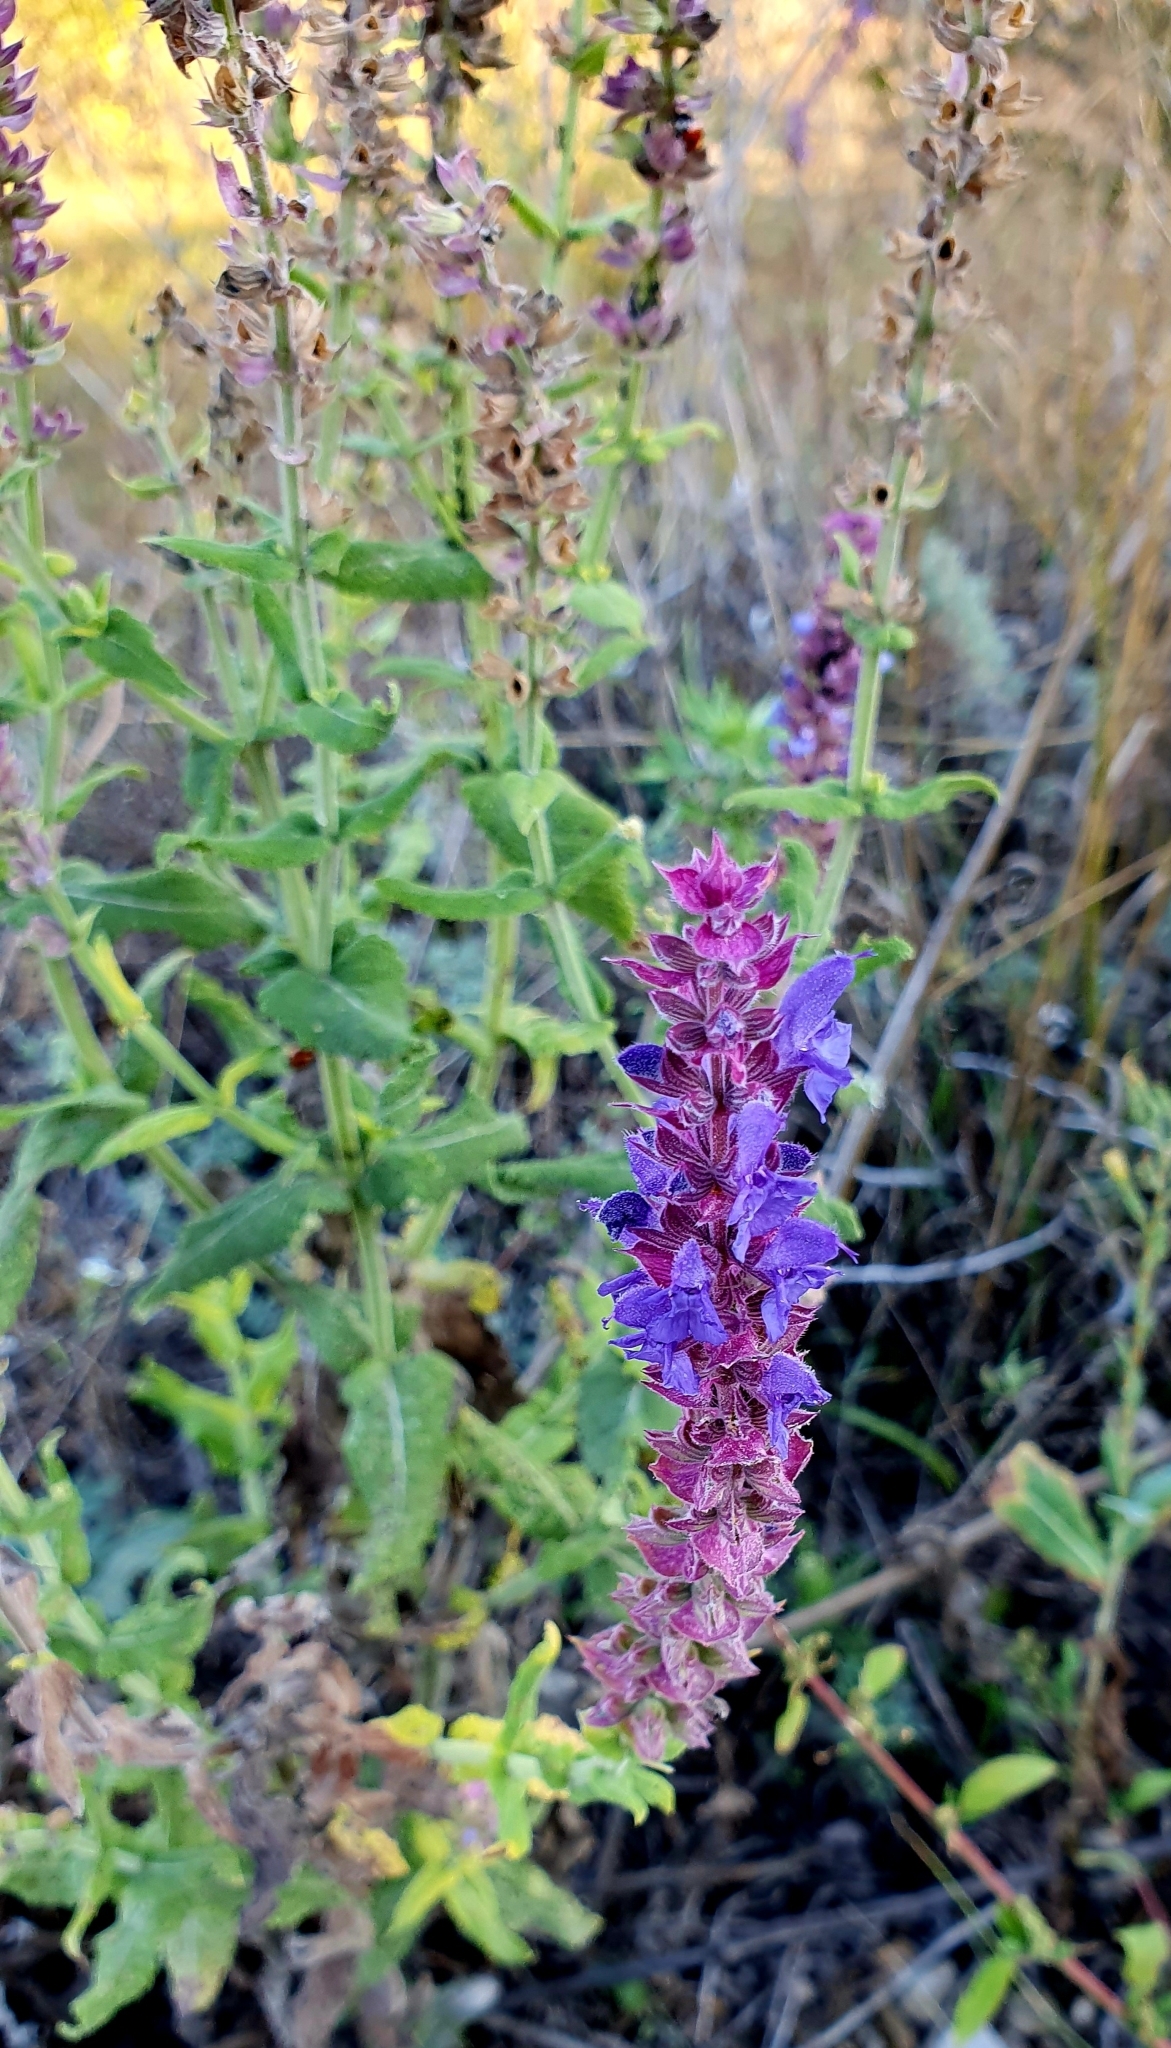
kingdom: Plantae
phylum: Tracheophyta
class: Magnoliopsida
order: Lamiales
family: Lamiaceae
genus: Salvia
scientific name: Salvia nemorosa
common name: Balkan clary
